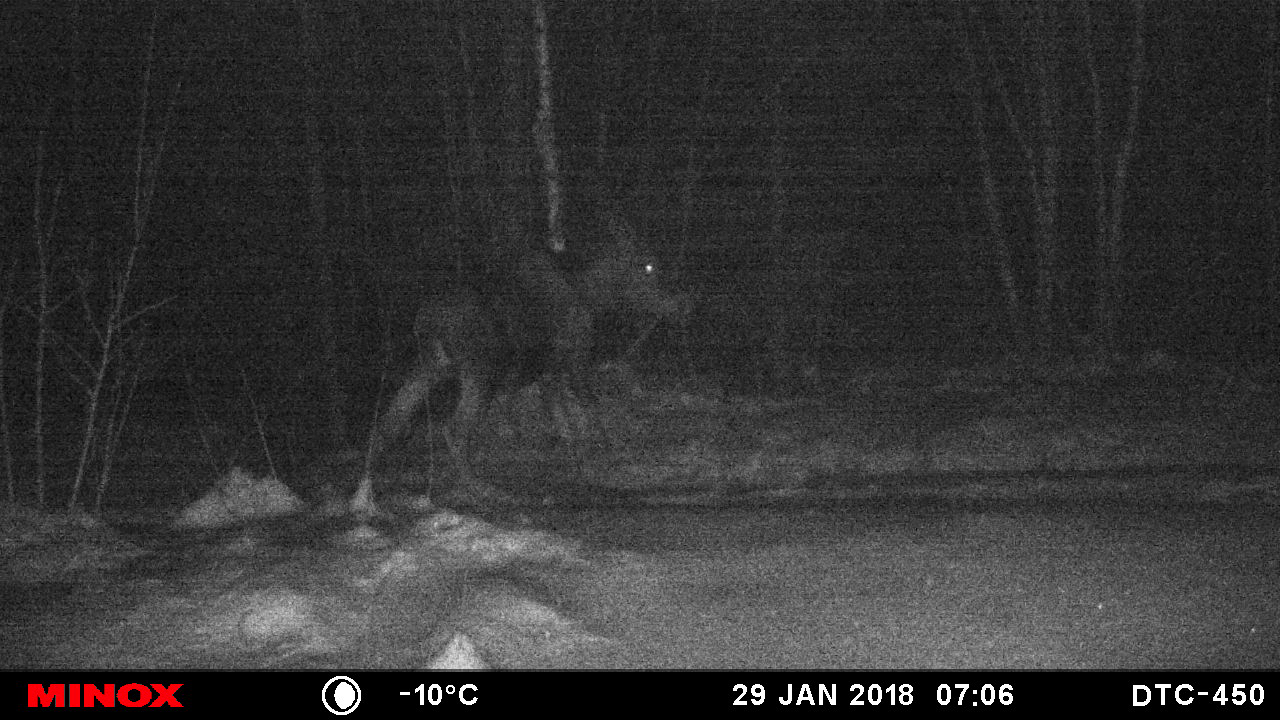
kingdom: Animalia
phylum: Chordata
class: Mammalia
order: Artiodactyla
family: Cervidae
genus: Alces
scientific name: Alces alces
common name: Moose
